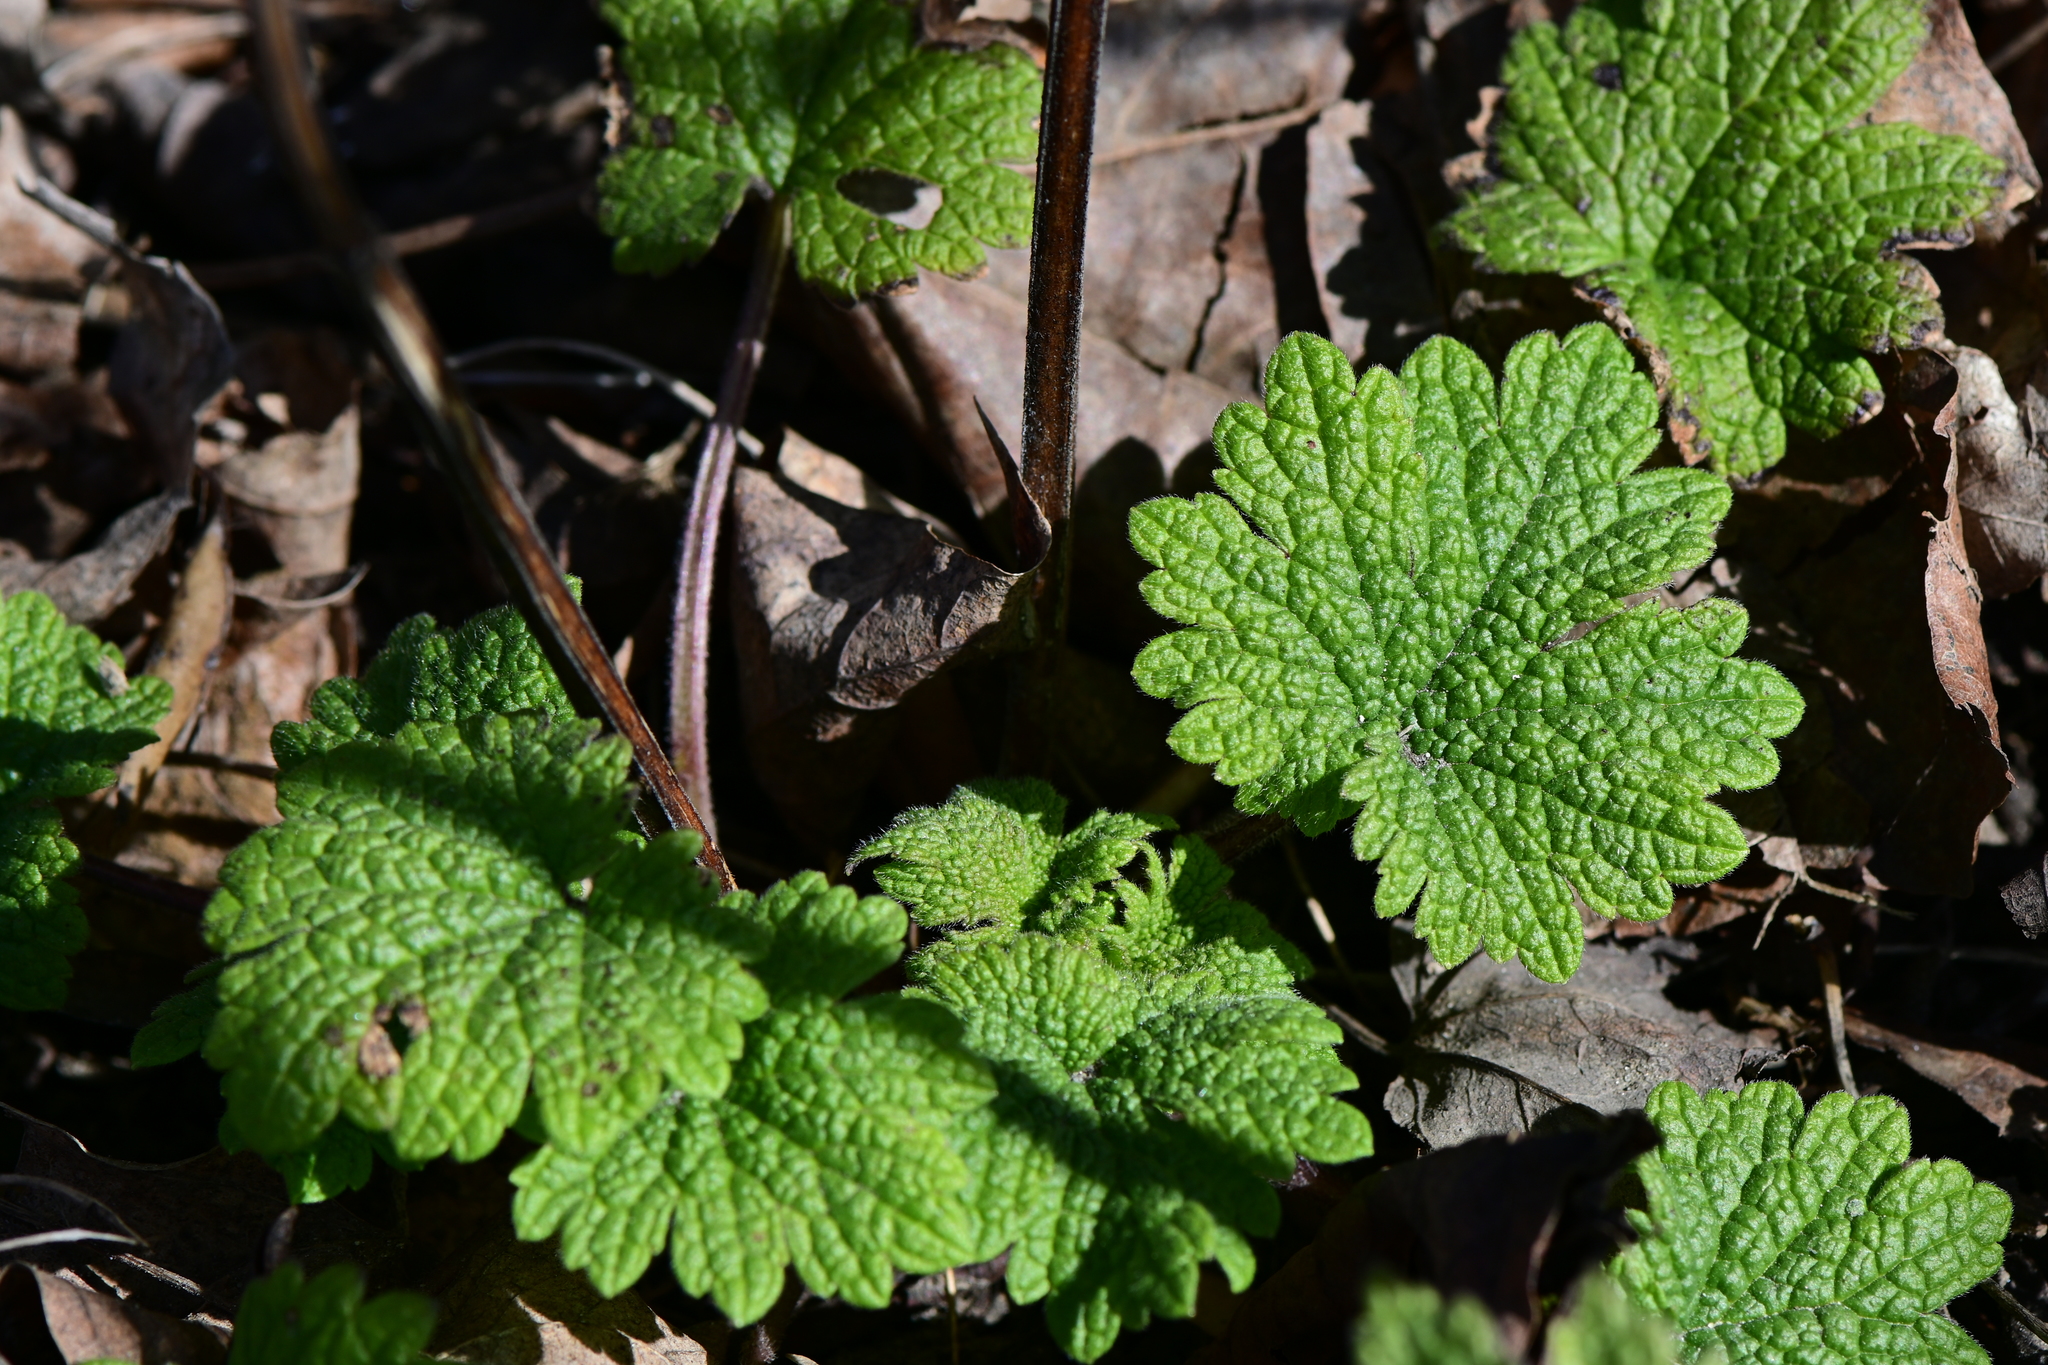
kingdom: Plantae
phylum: Tracheophyta
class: Magnoliopsida
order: Lamiales
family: Lamiaceae
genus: Leonurus
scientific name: Leonurus cardiaca
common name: Motherwort
